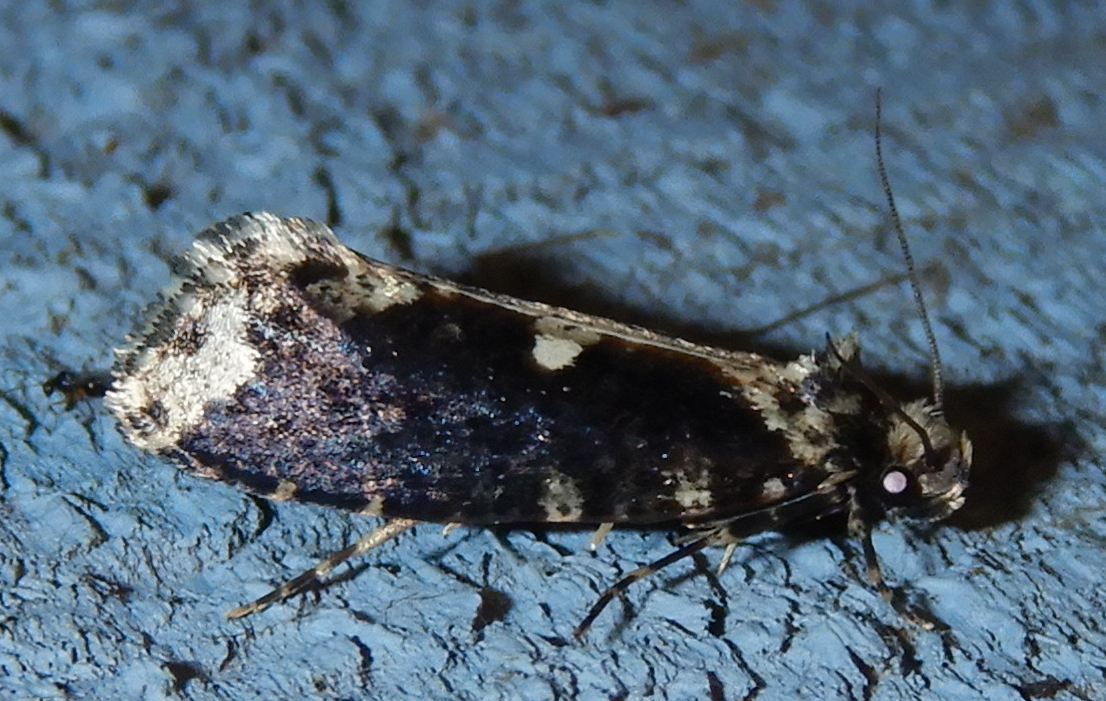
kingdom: Animalia
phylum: Arthropoda
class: Insecta
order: Lepidoptera
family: Tineidae
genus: Scardia
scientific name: Scardia anatomella
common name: Pied scardia
